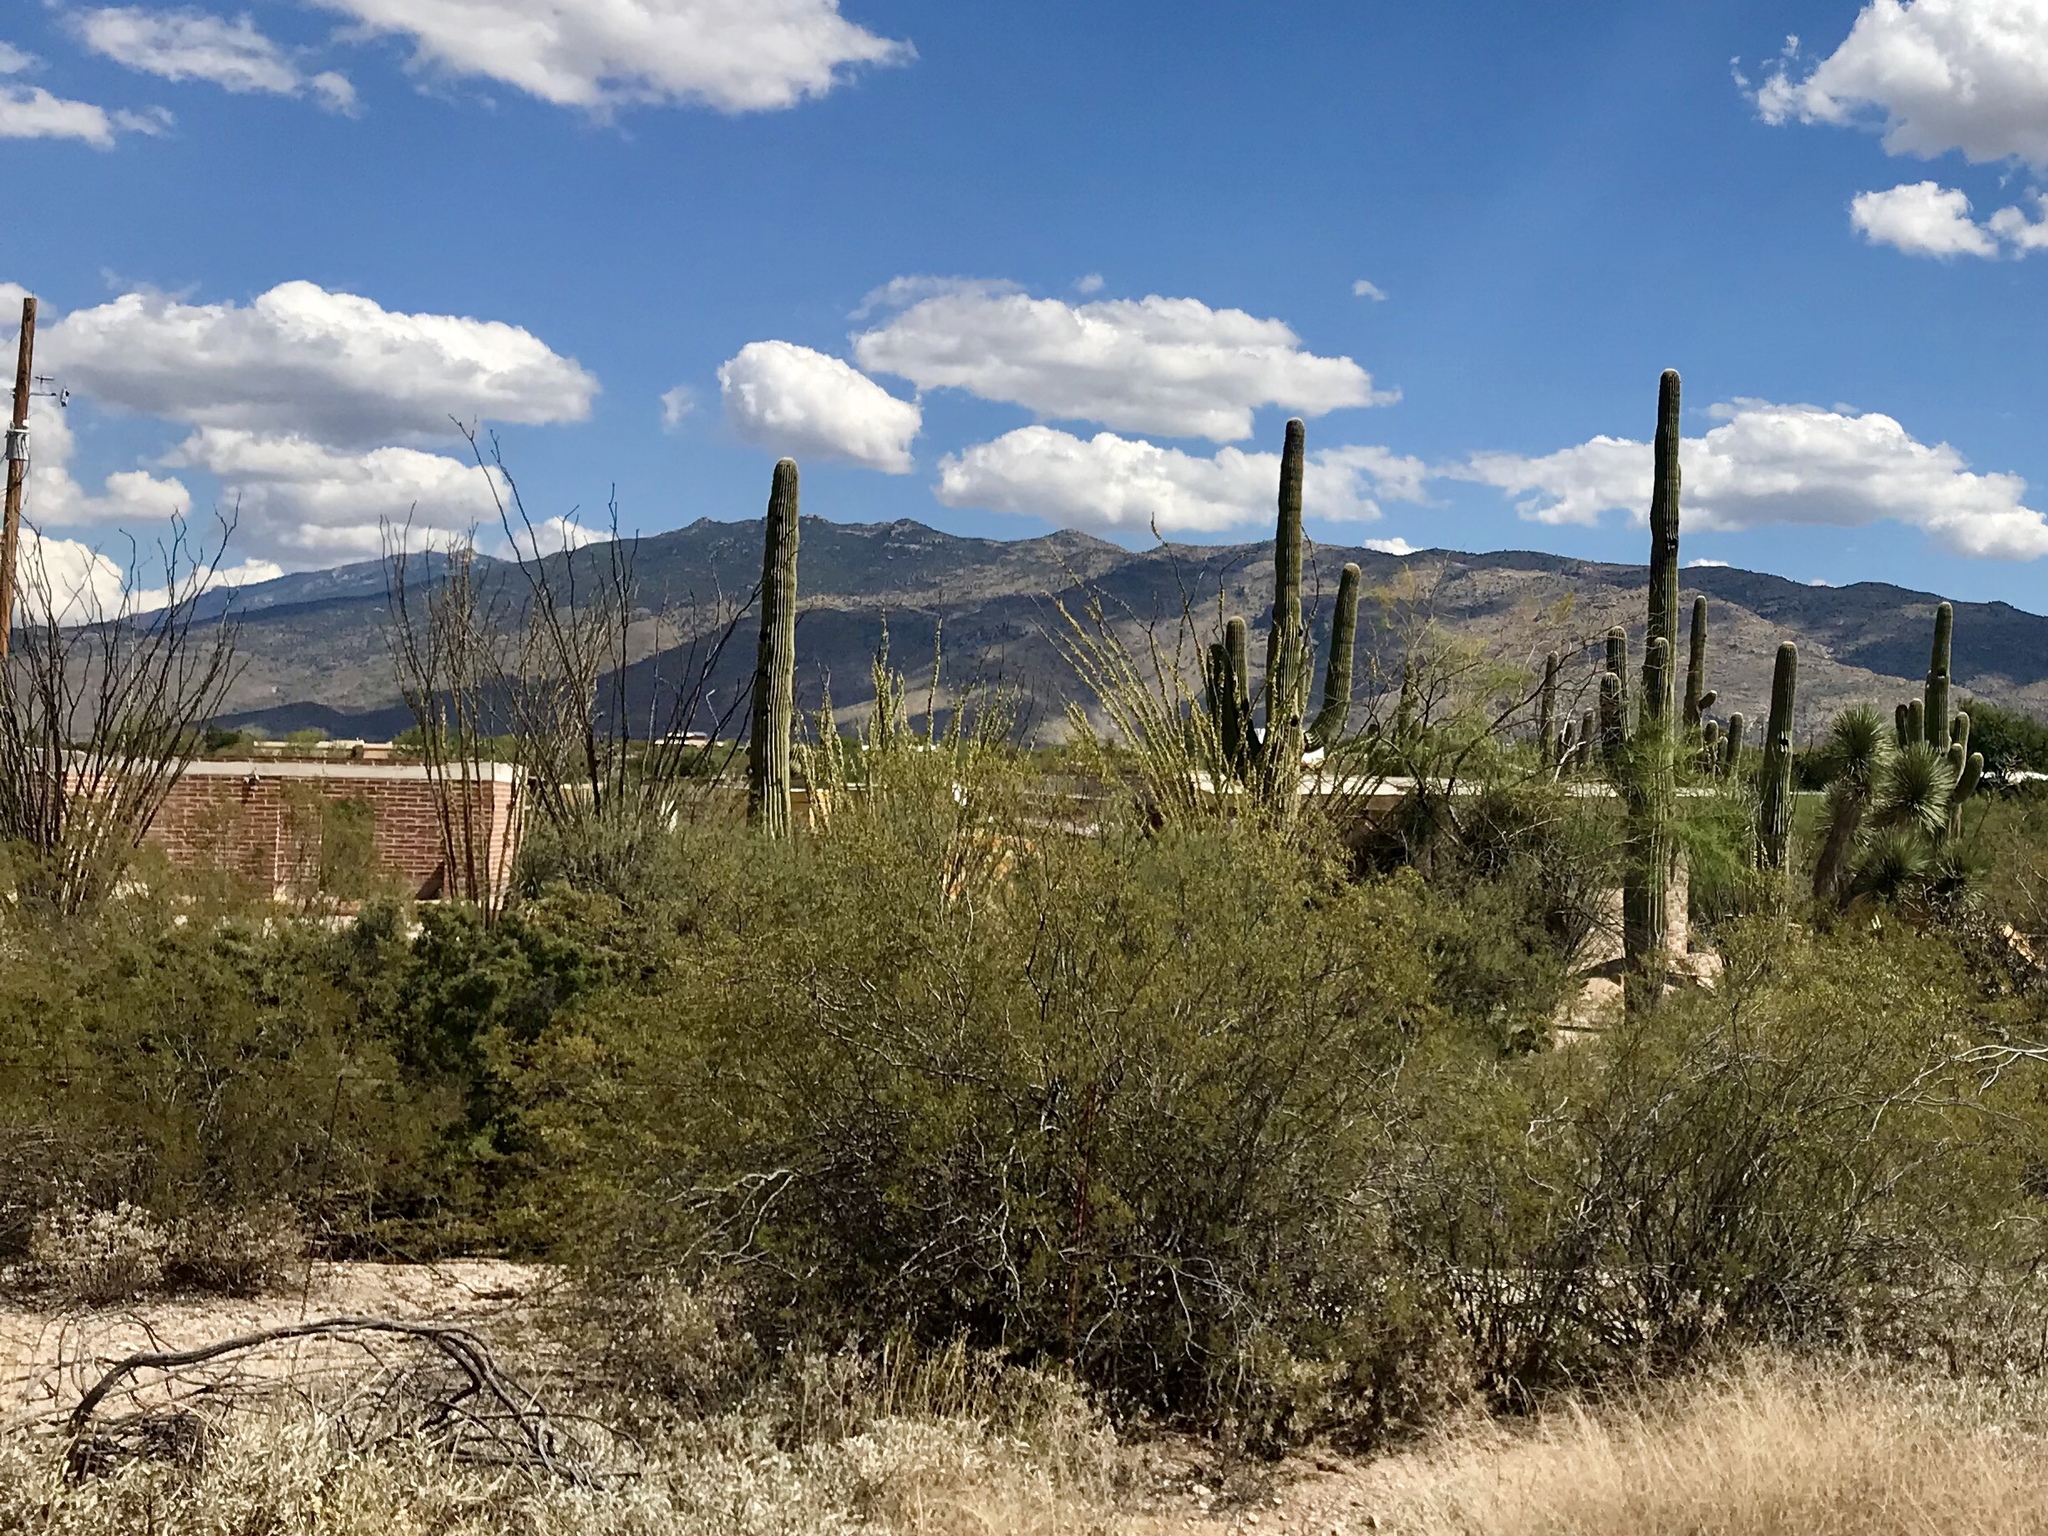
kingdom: Plantae
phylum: Tracheophyta
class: Magnoliopsida
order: Zygophyllales
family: Zygophyllaceae
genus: Larrea
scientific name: Larrea tridentata
